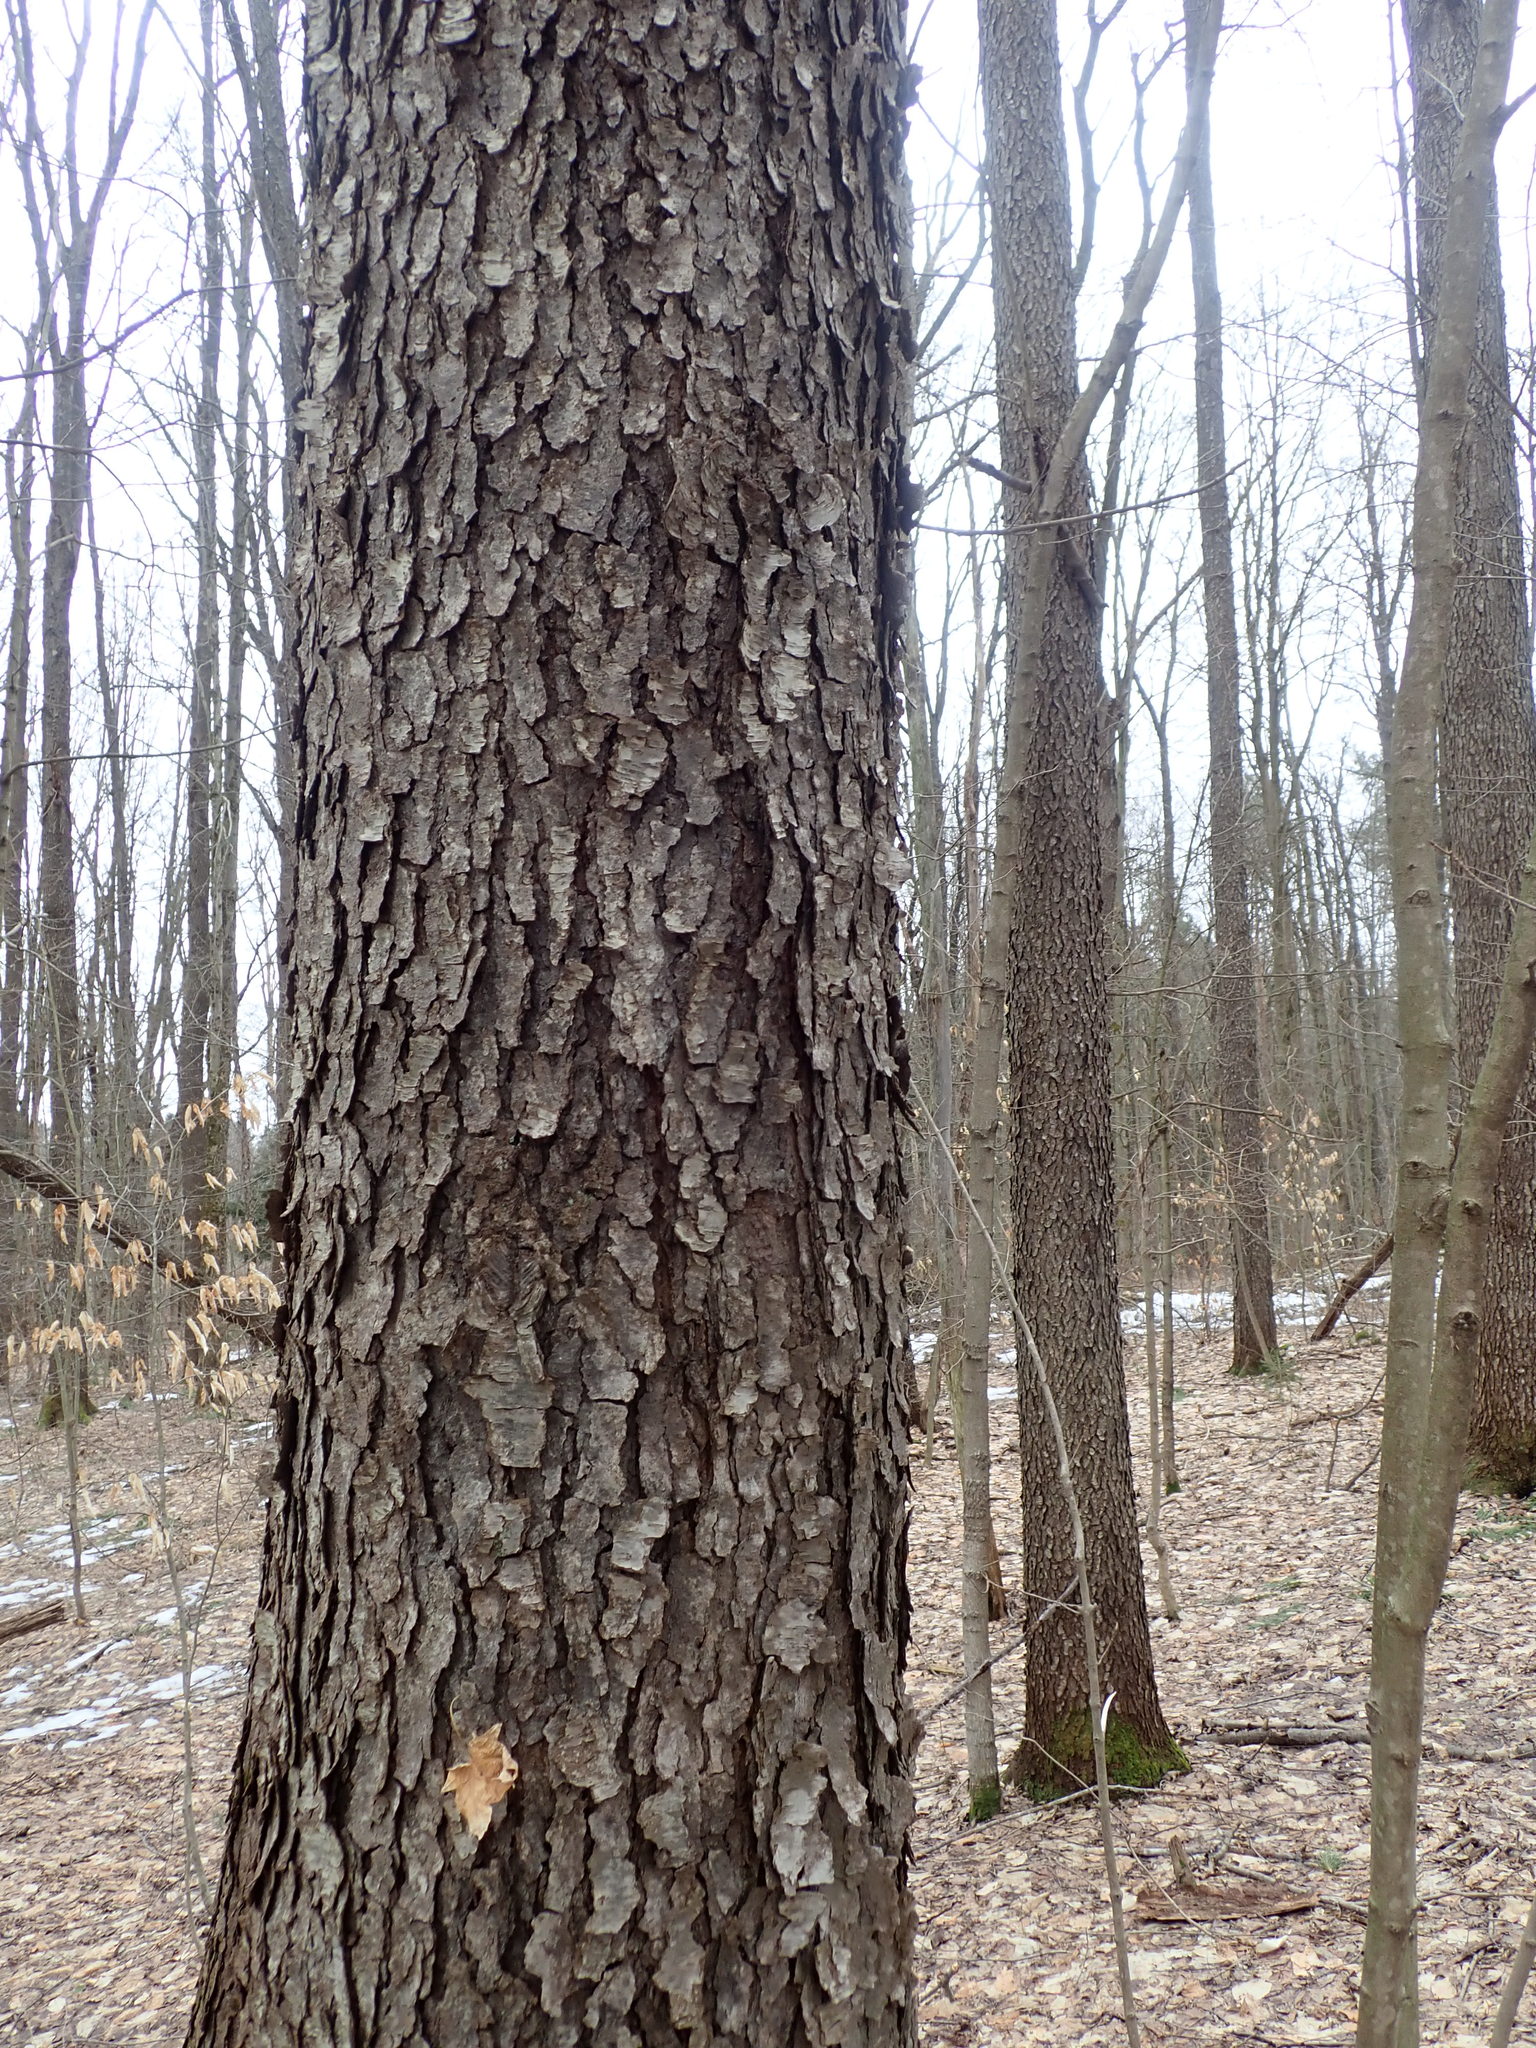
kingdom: Plantae
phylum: Tracheophyta
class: Magnoliopsida
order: Rosales
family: Rosaceae
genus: Prunus
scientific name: Prunus serotina
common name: Black cherry
